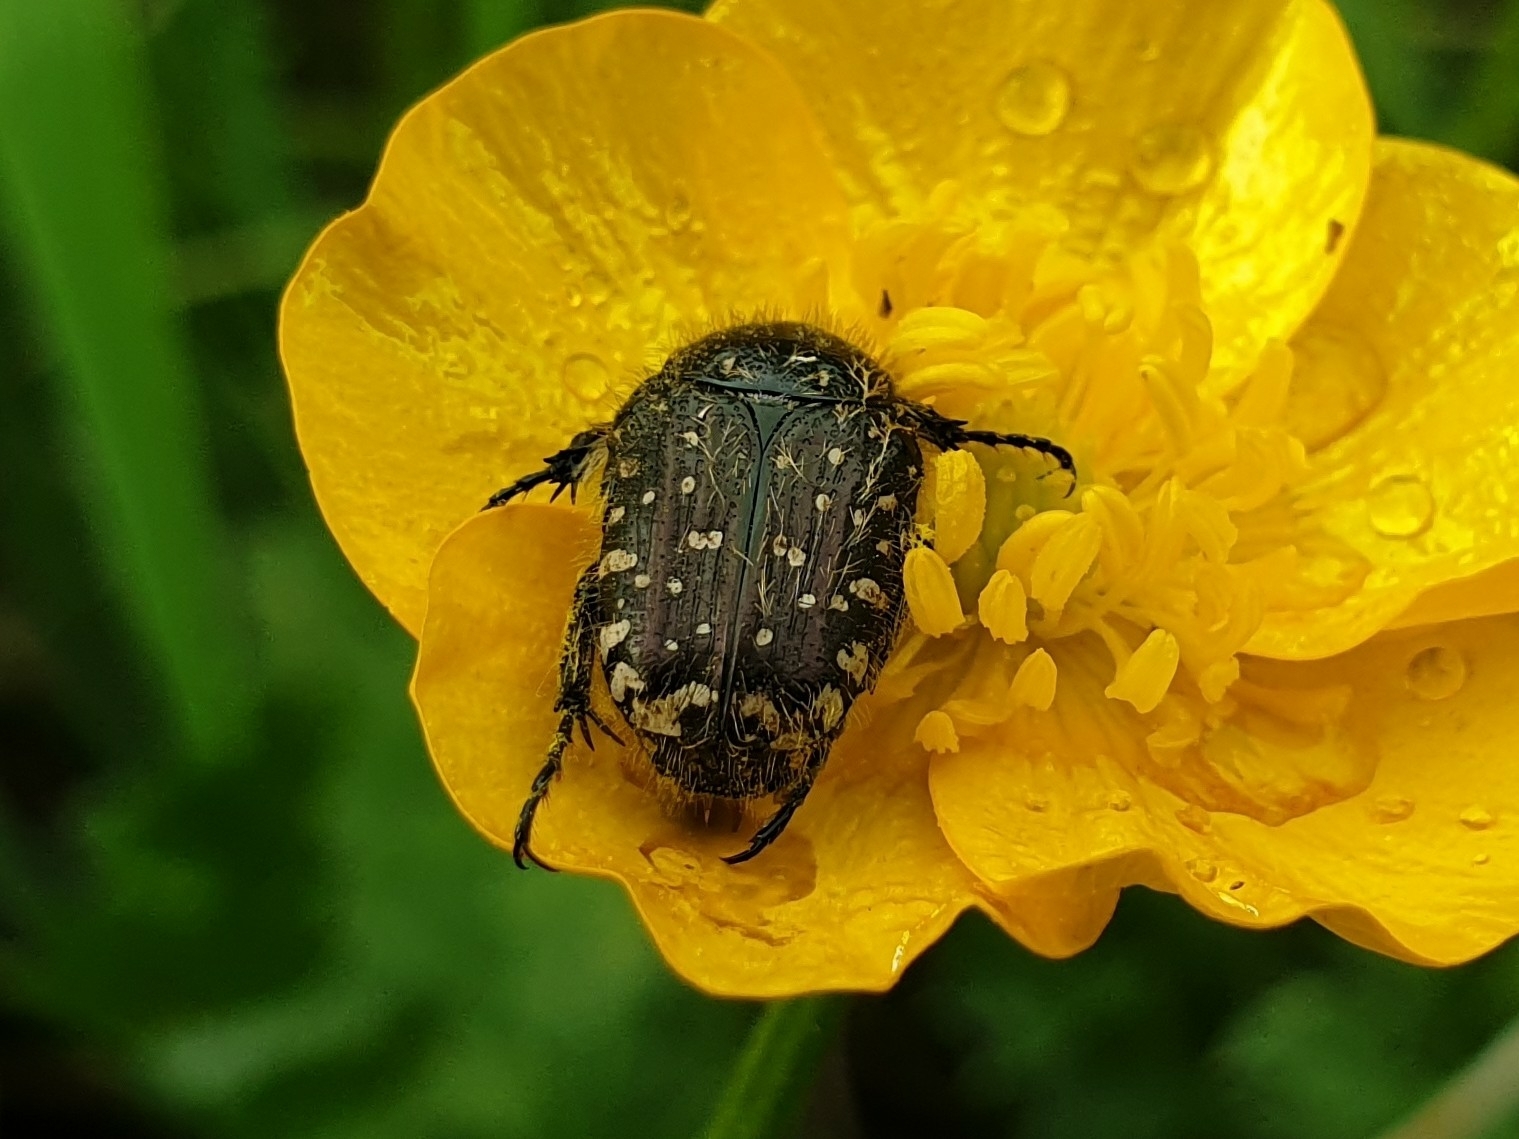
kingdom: Animalia
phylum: Arthropoda
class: Insecta
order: Coleoptera
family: Scarabaeidae
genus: Oxythyrea
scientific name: Oxythyrea funesta
